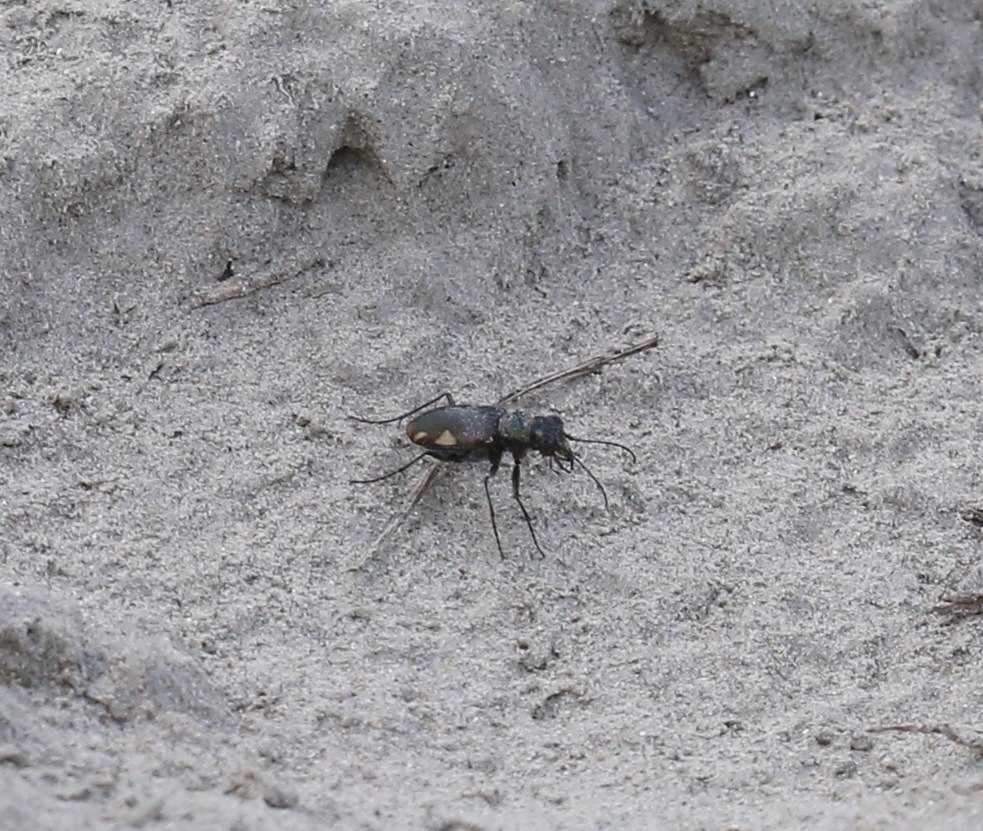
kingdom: Animalia
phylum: Arthropoda
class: Insecta
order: Coleoptera
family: Carabidae
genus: Cicindela
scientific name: Cicindela scutellaris
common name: Festive tiger beetle
